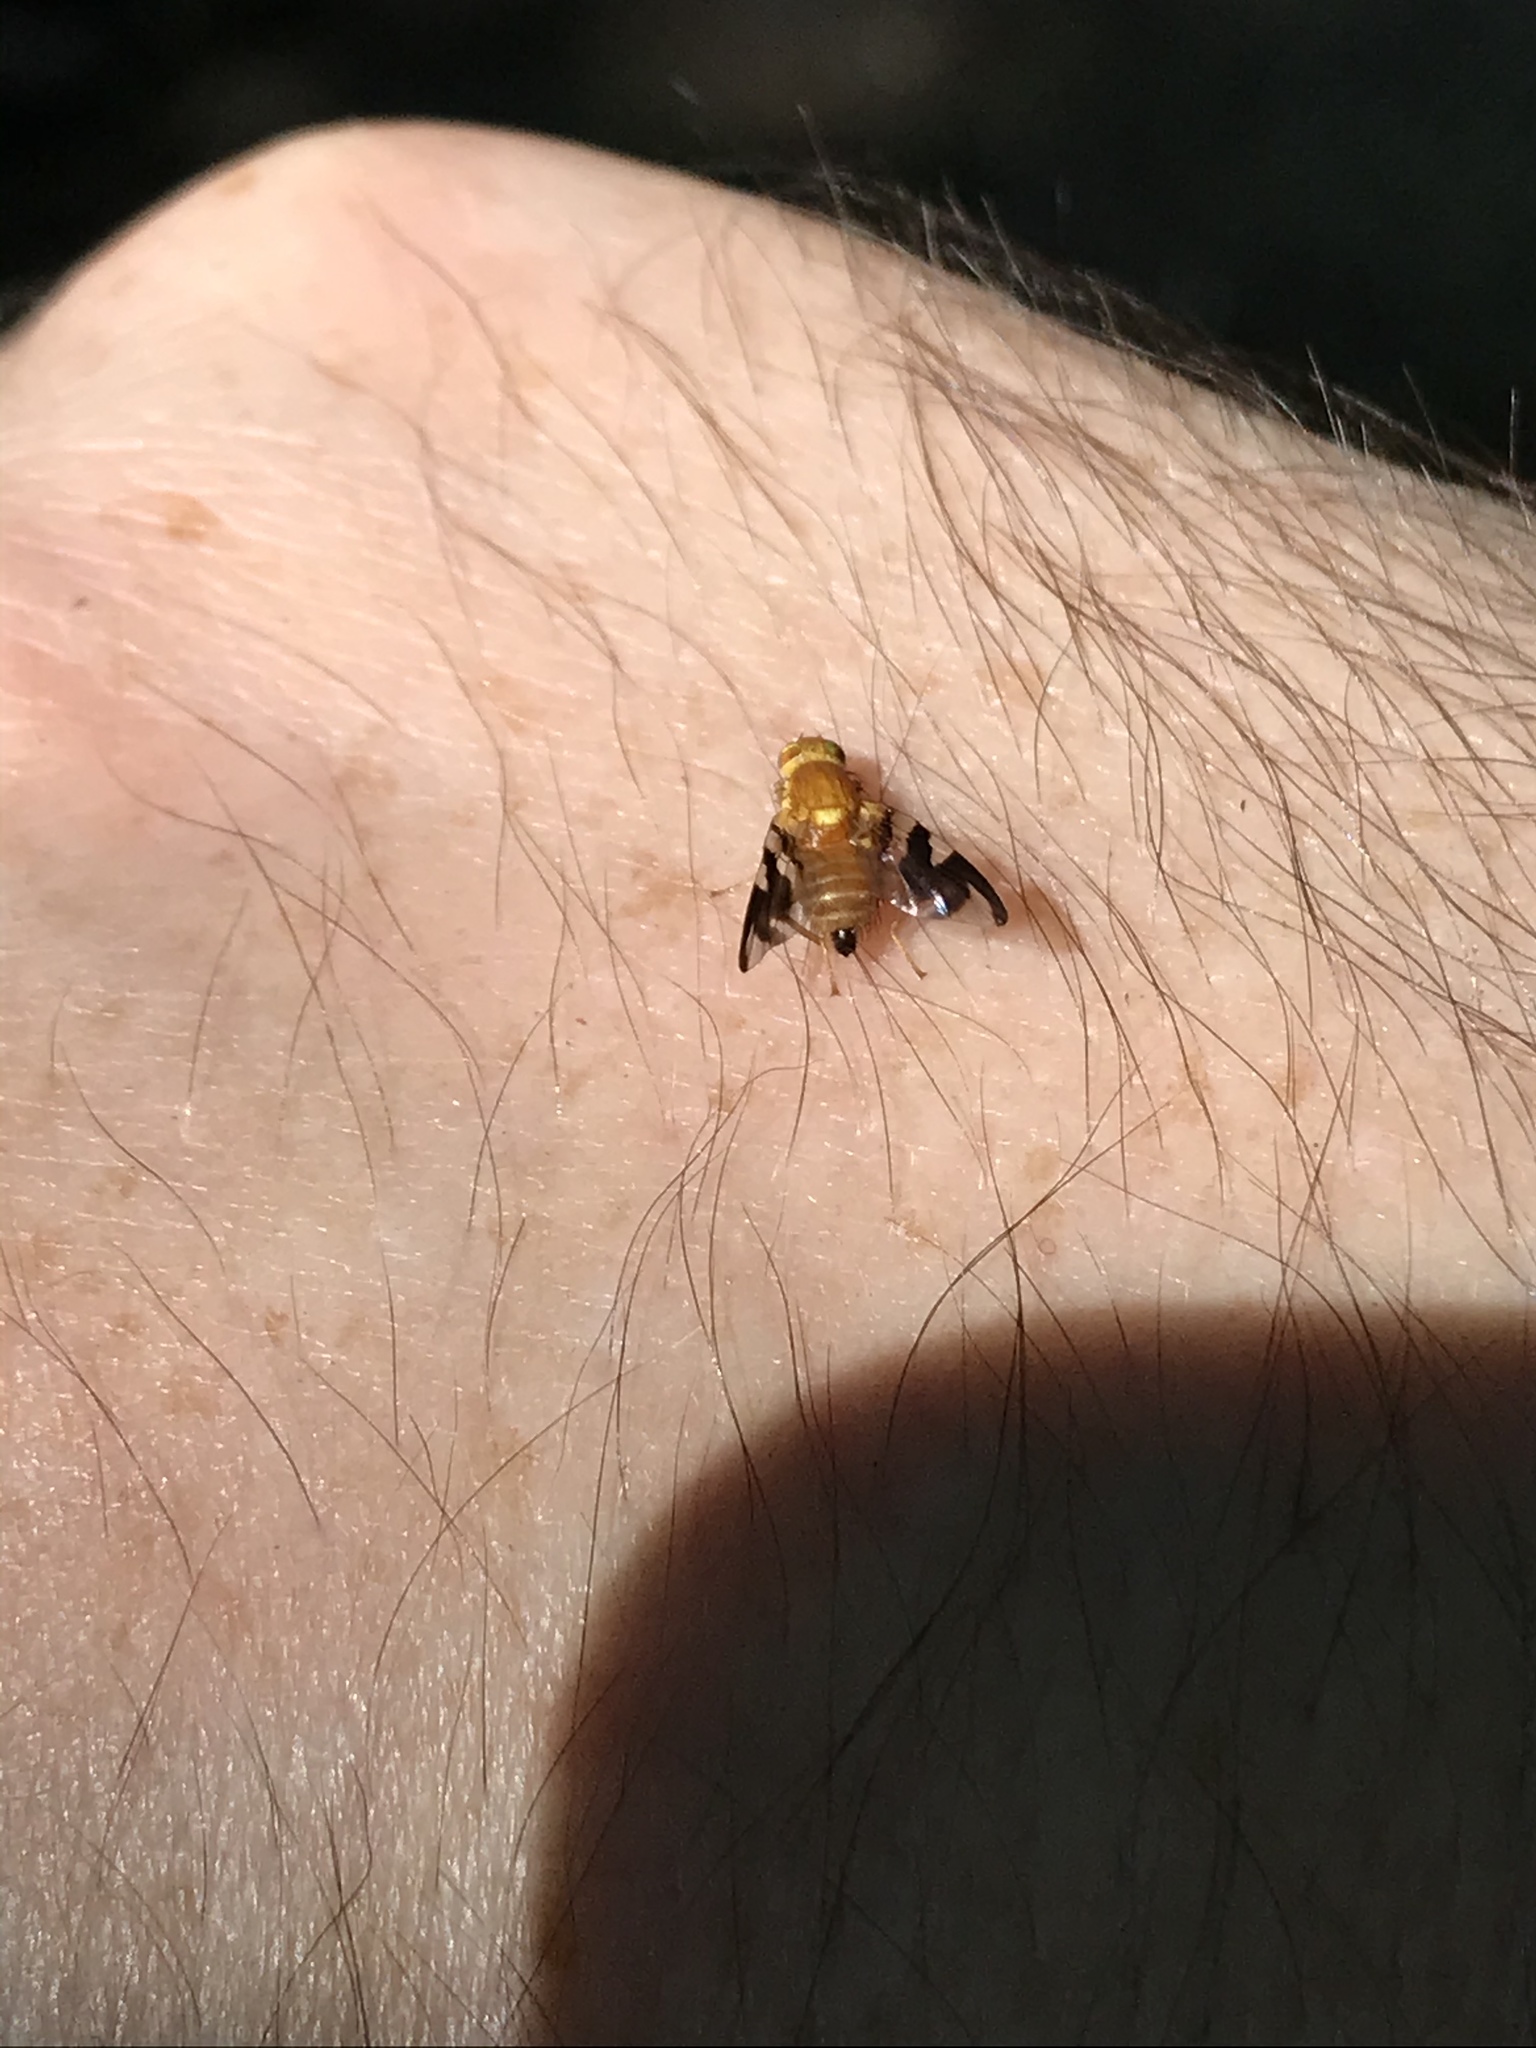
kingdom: Animalia
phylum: Arthropoda
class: Insecta
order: Diptera
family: Tephritidae
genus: Rhagoletis
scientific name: Rhagoletis suavis
